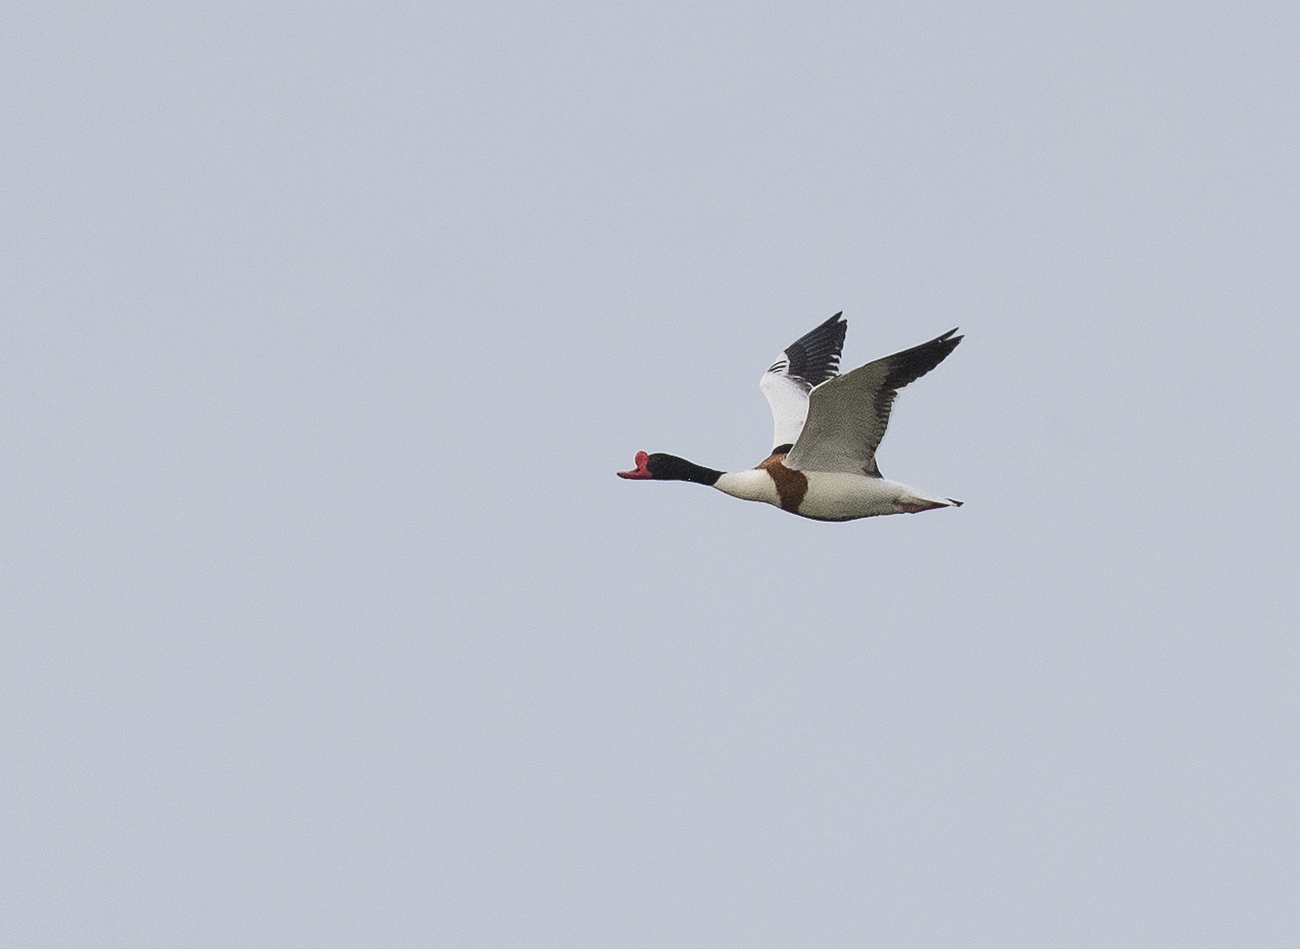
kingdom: Animalia
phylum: Chordata
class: Aves
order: Anseriformes
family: Anatidae
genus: Tadorna
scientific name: Tadorna tadorna
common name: Common shelduck
